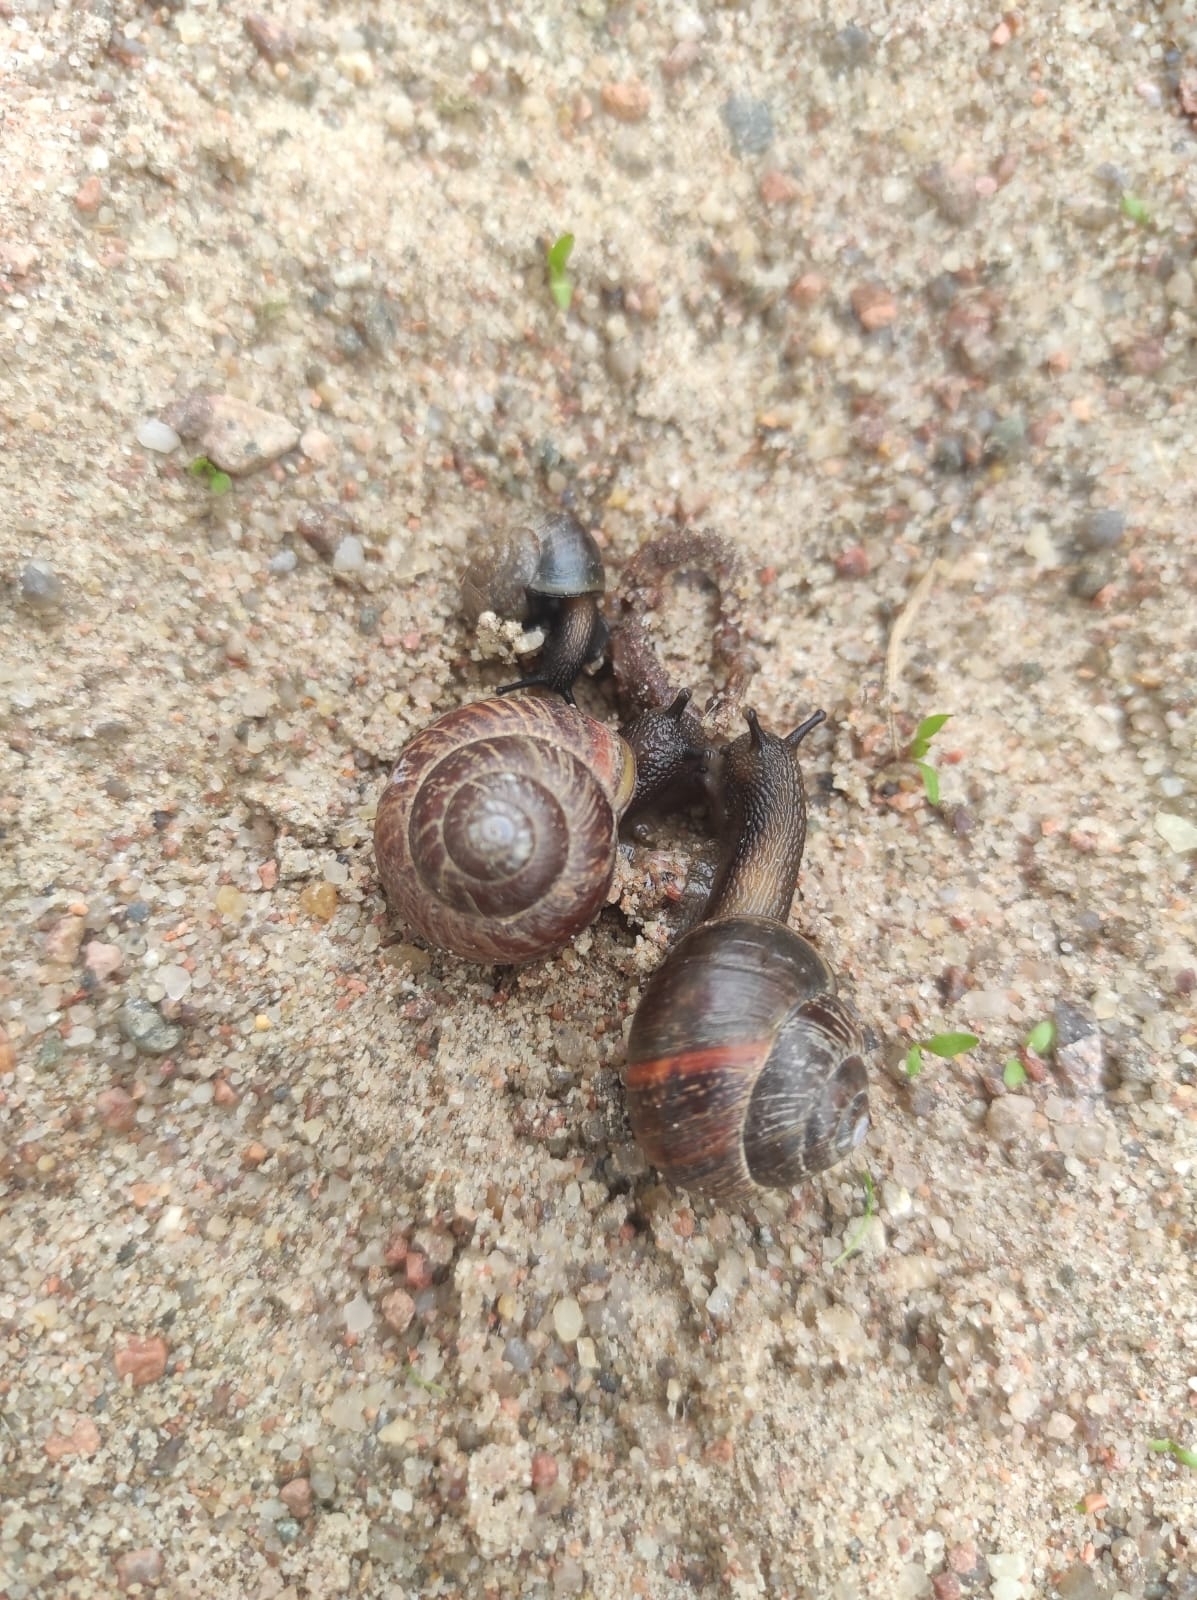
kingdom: Animalia
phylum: Mollusca
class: Gastropoda
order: Stylommatophora
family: Helicidae
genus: Arianta
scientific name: Arianta arbustorum
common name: Copse snail
